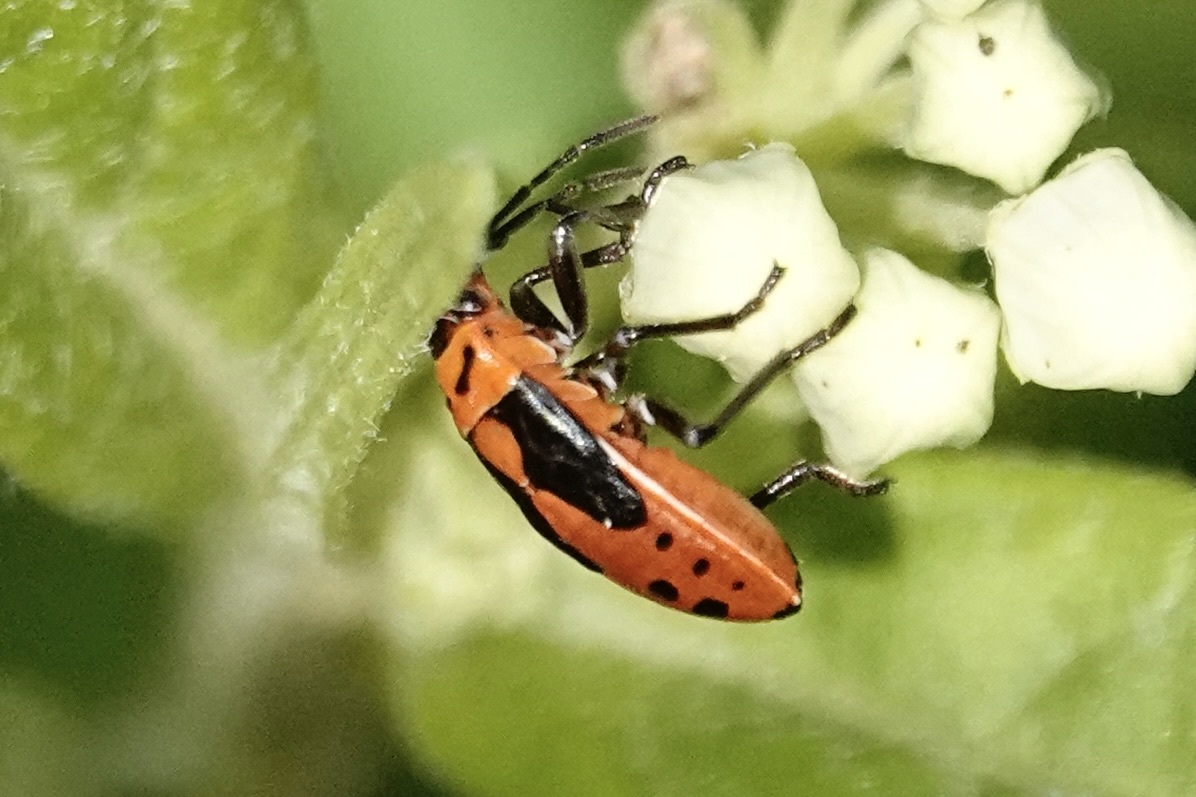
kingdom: Animalia
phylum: Arthropoda
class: Insecta
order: Hemiptera
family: Lygaeidae
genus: Lygaeus
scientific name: Lygaeus kalmii
